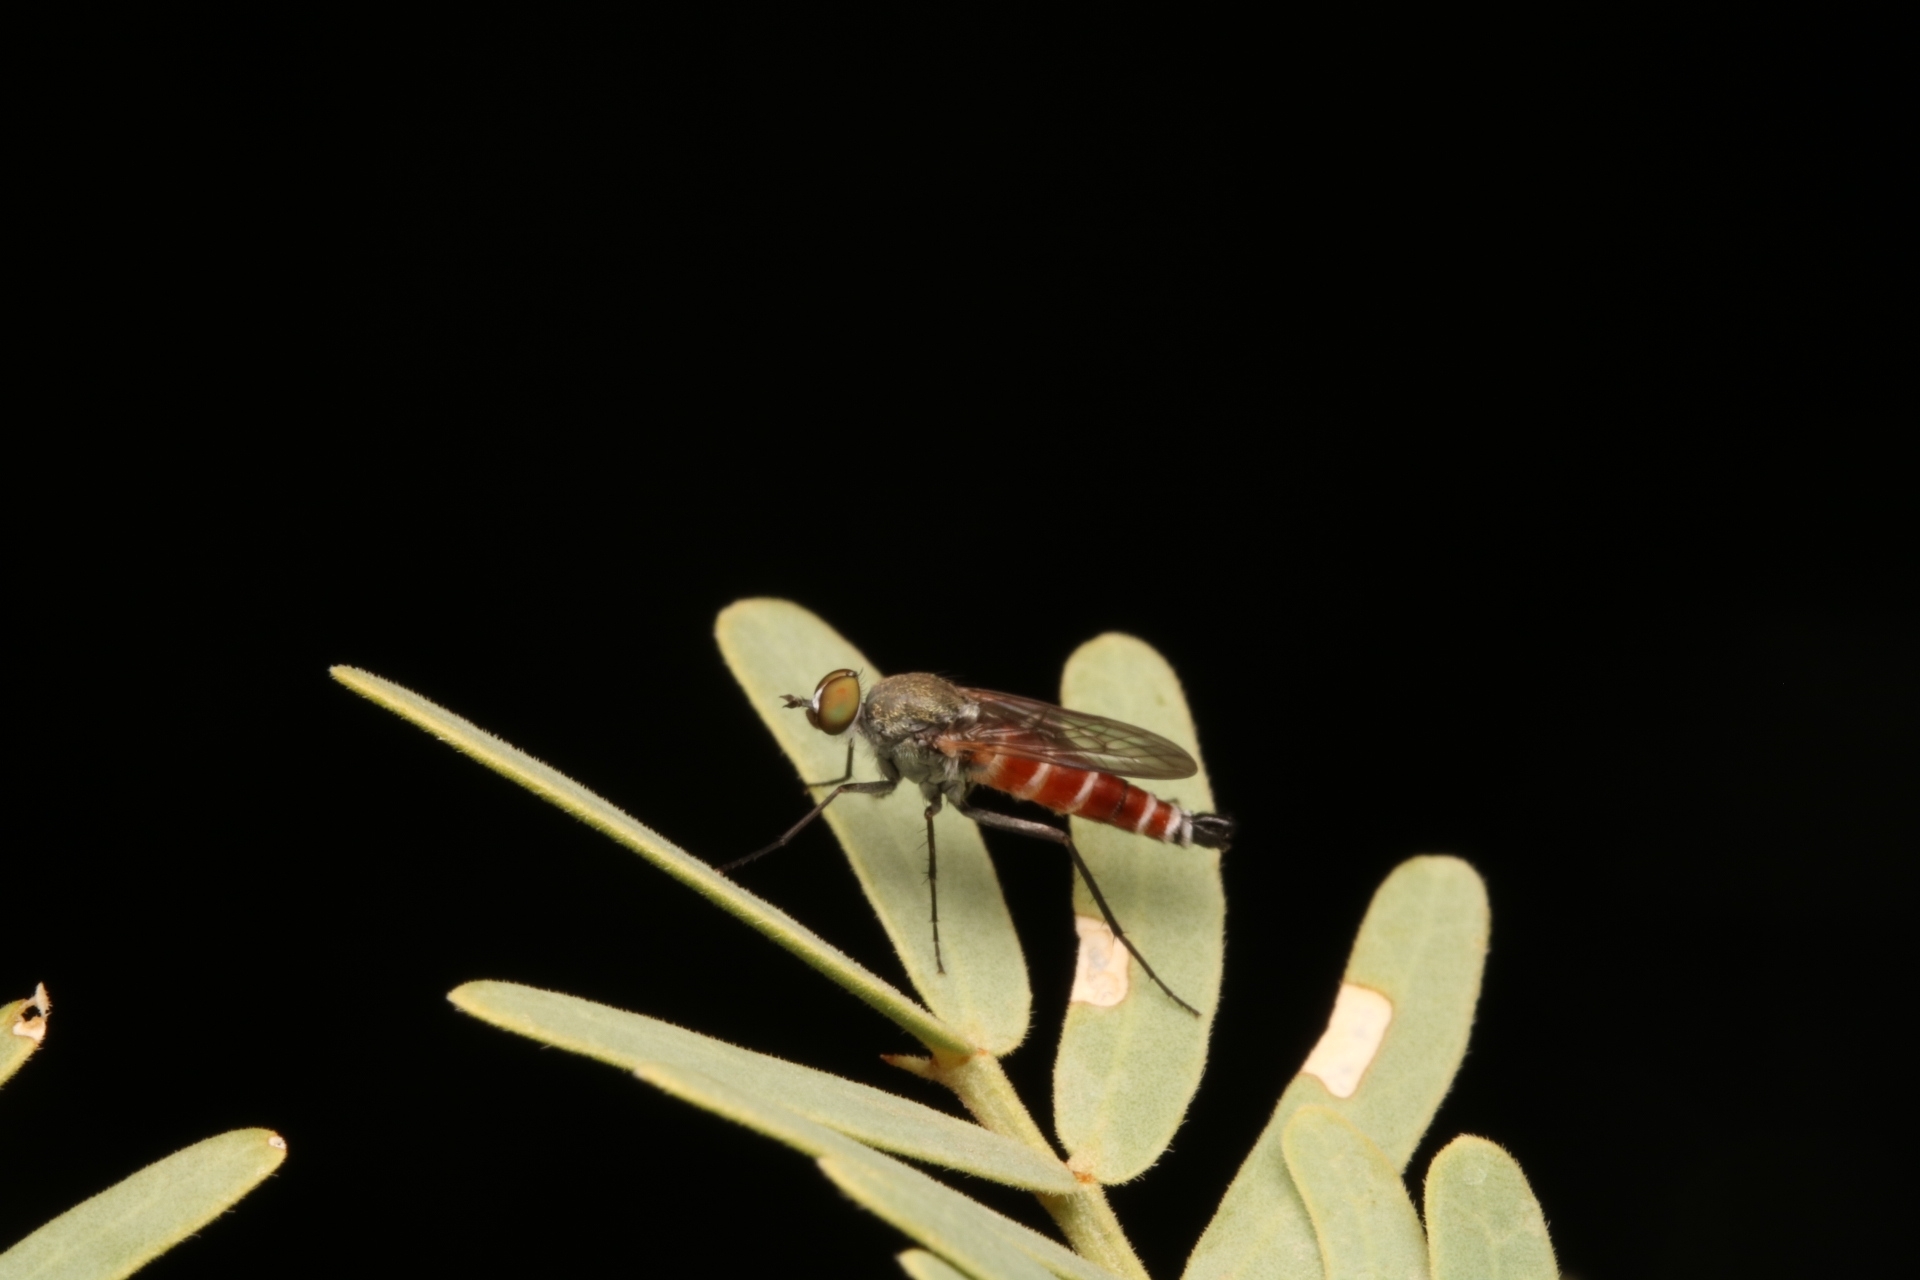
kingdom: Animalia
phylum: Arthropoda
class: Insecta
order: Diptera
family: Therevidae
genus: Lysilinga
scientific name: Lysilinga aurantiaca
